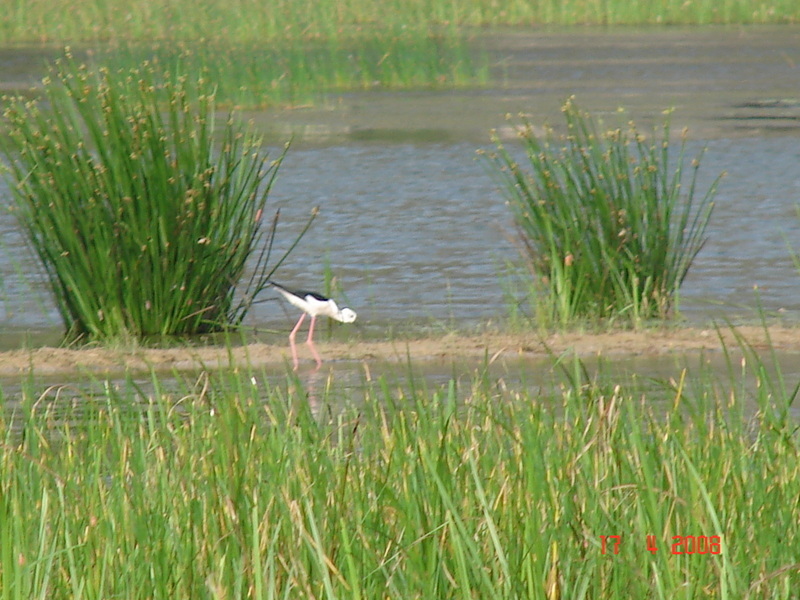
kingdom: Animalia
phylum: Chordata
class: Aves
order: Charadriiformes
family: Recurvirostridae
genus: Himantopus
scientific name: Himantopus himantopus
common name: Black-winged stilt
